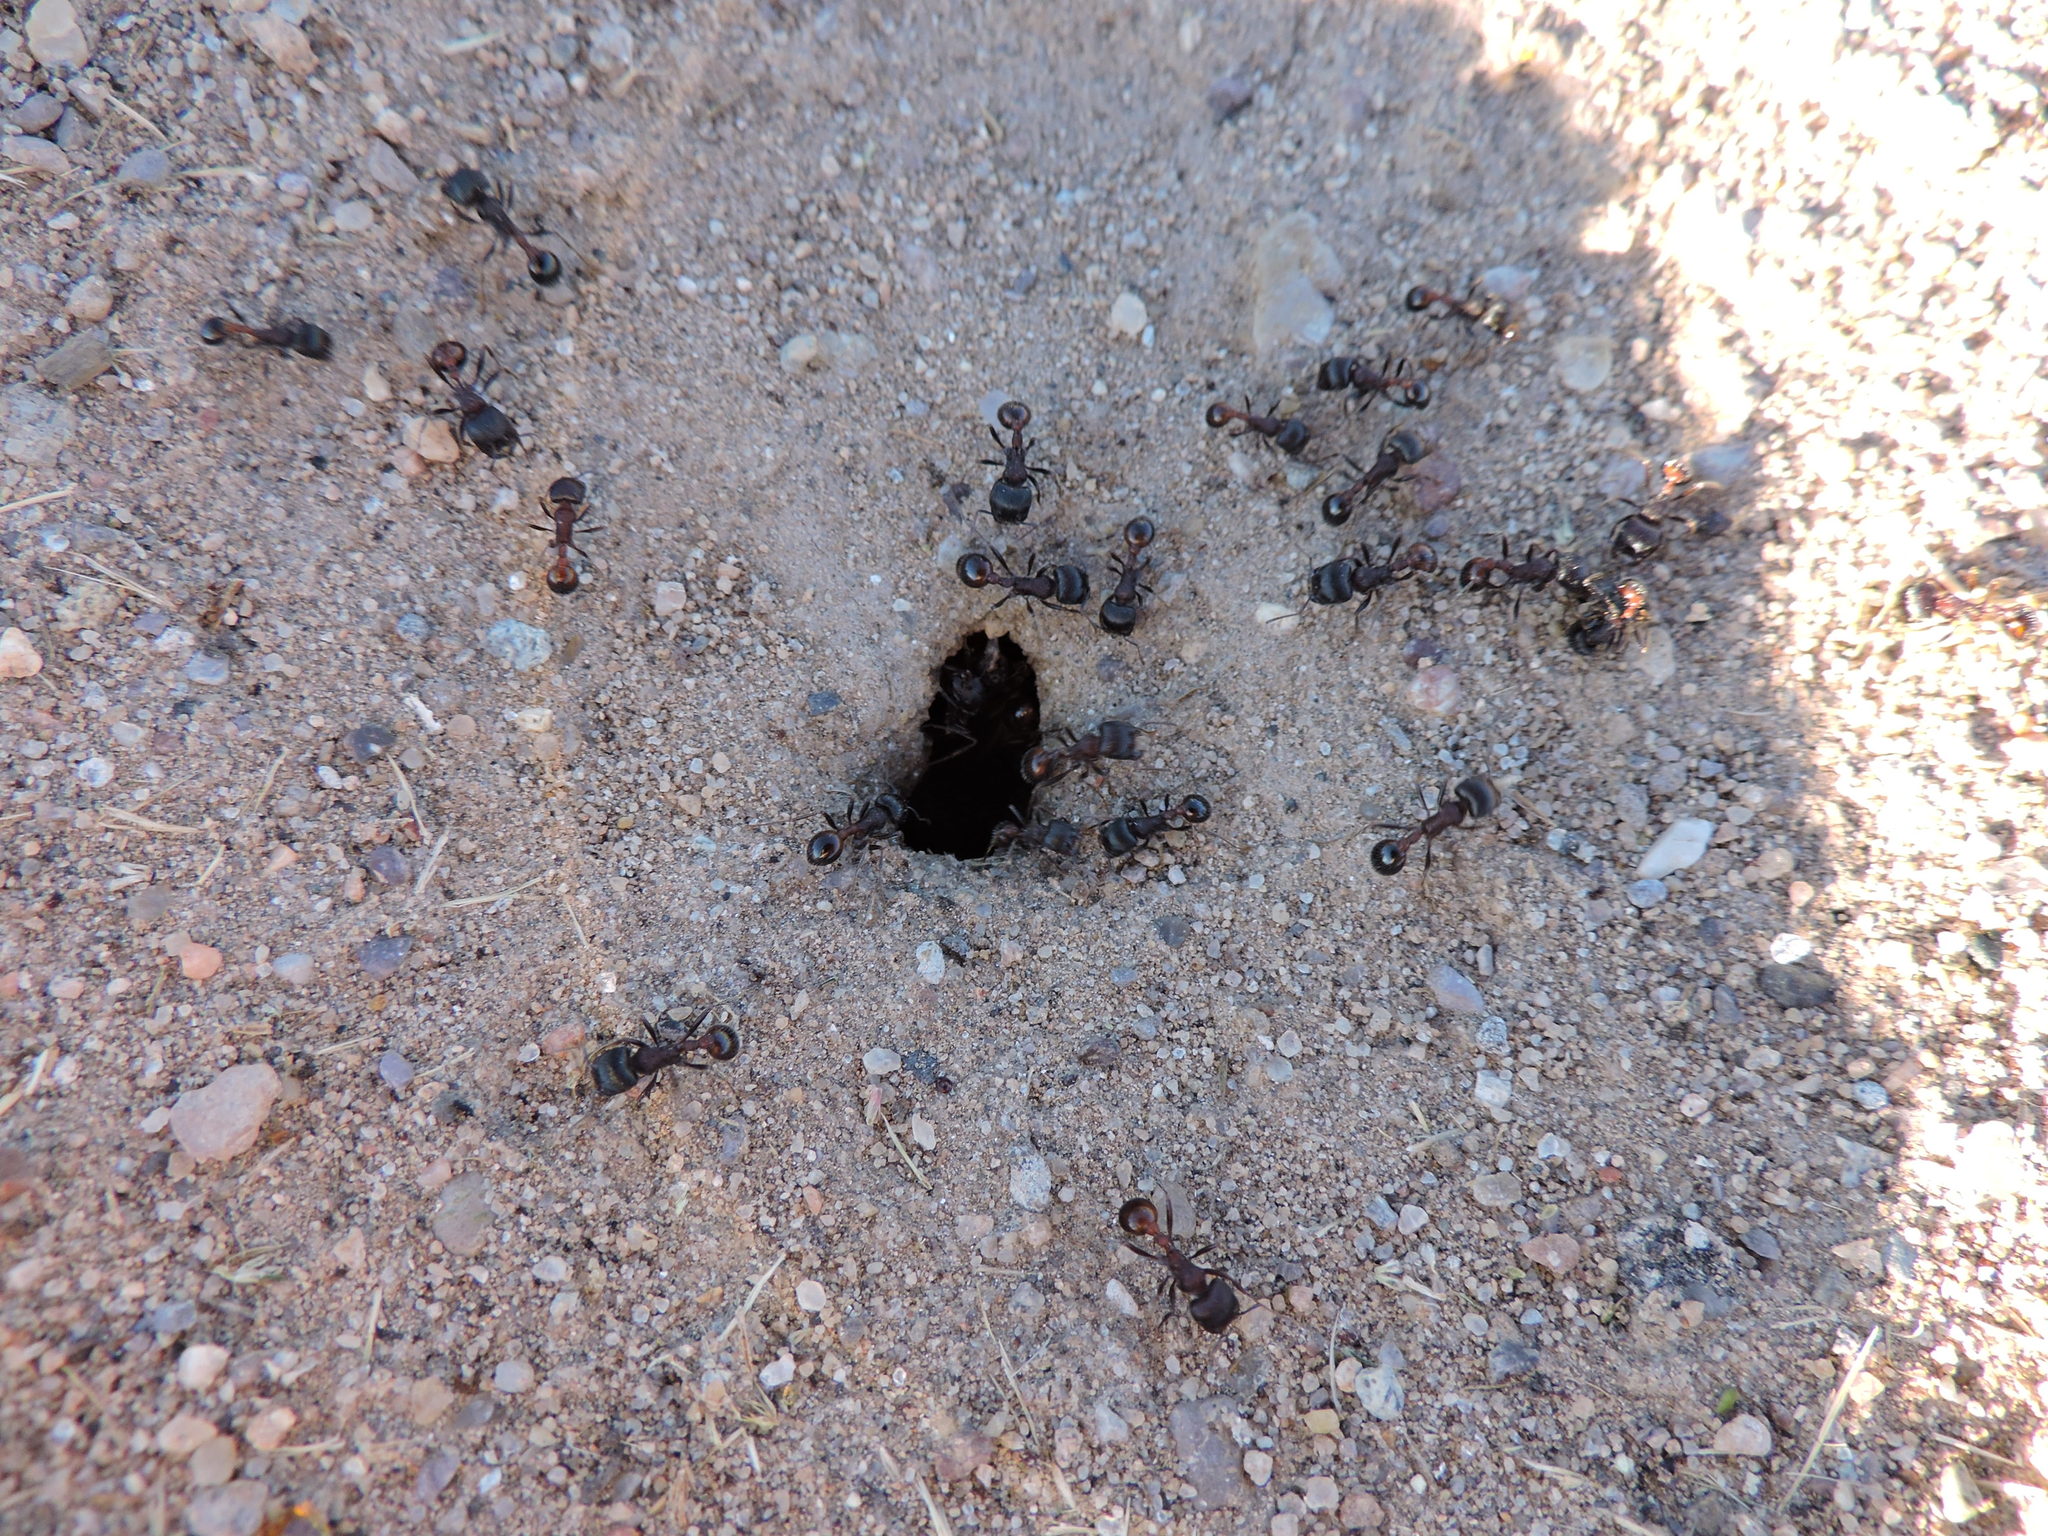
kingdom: Animalia
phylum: Arthropoda
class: Insecta
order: Hymenoptera
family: Formicidae
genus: Pogonomyrmex
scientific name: Pogonomyrmex rugosus
